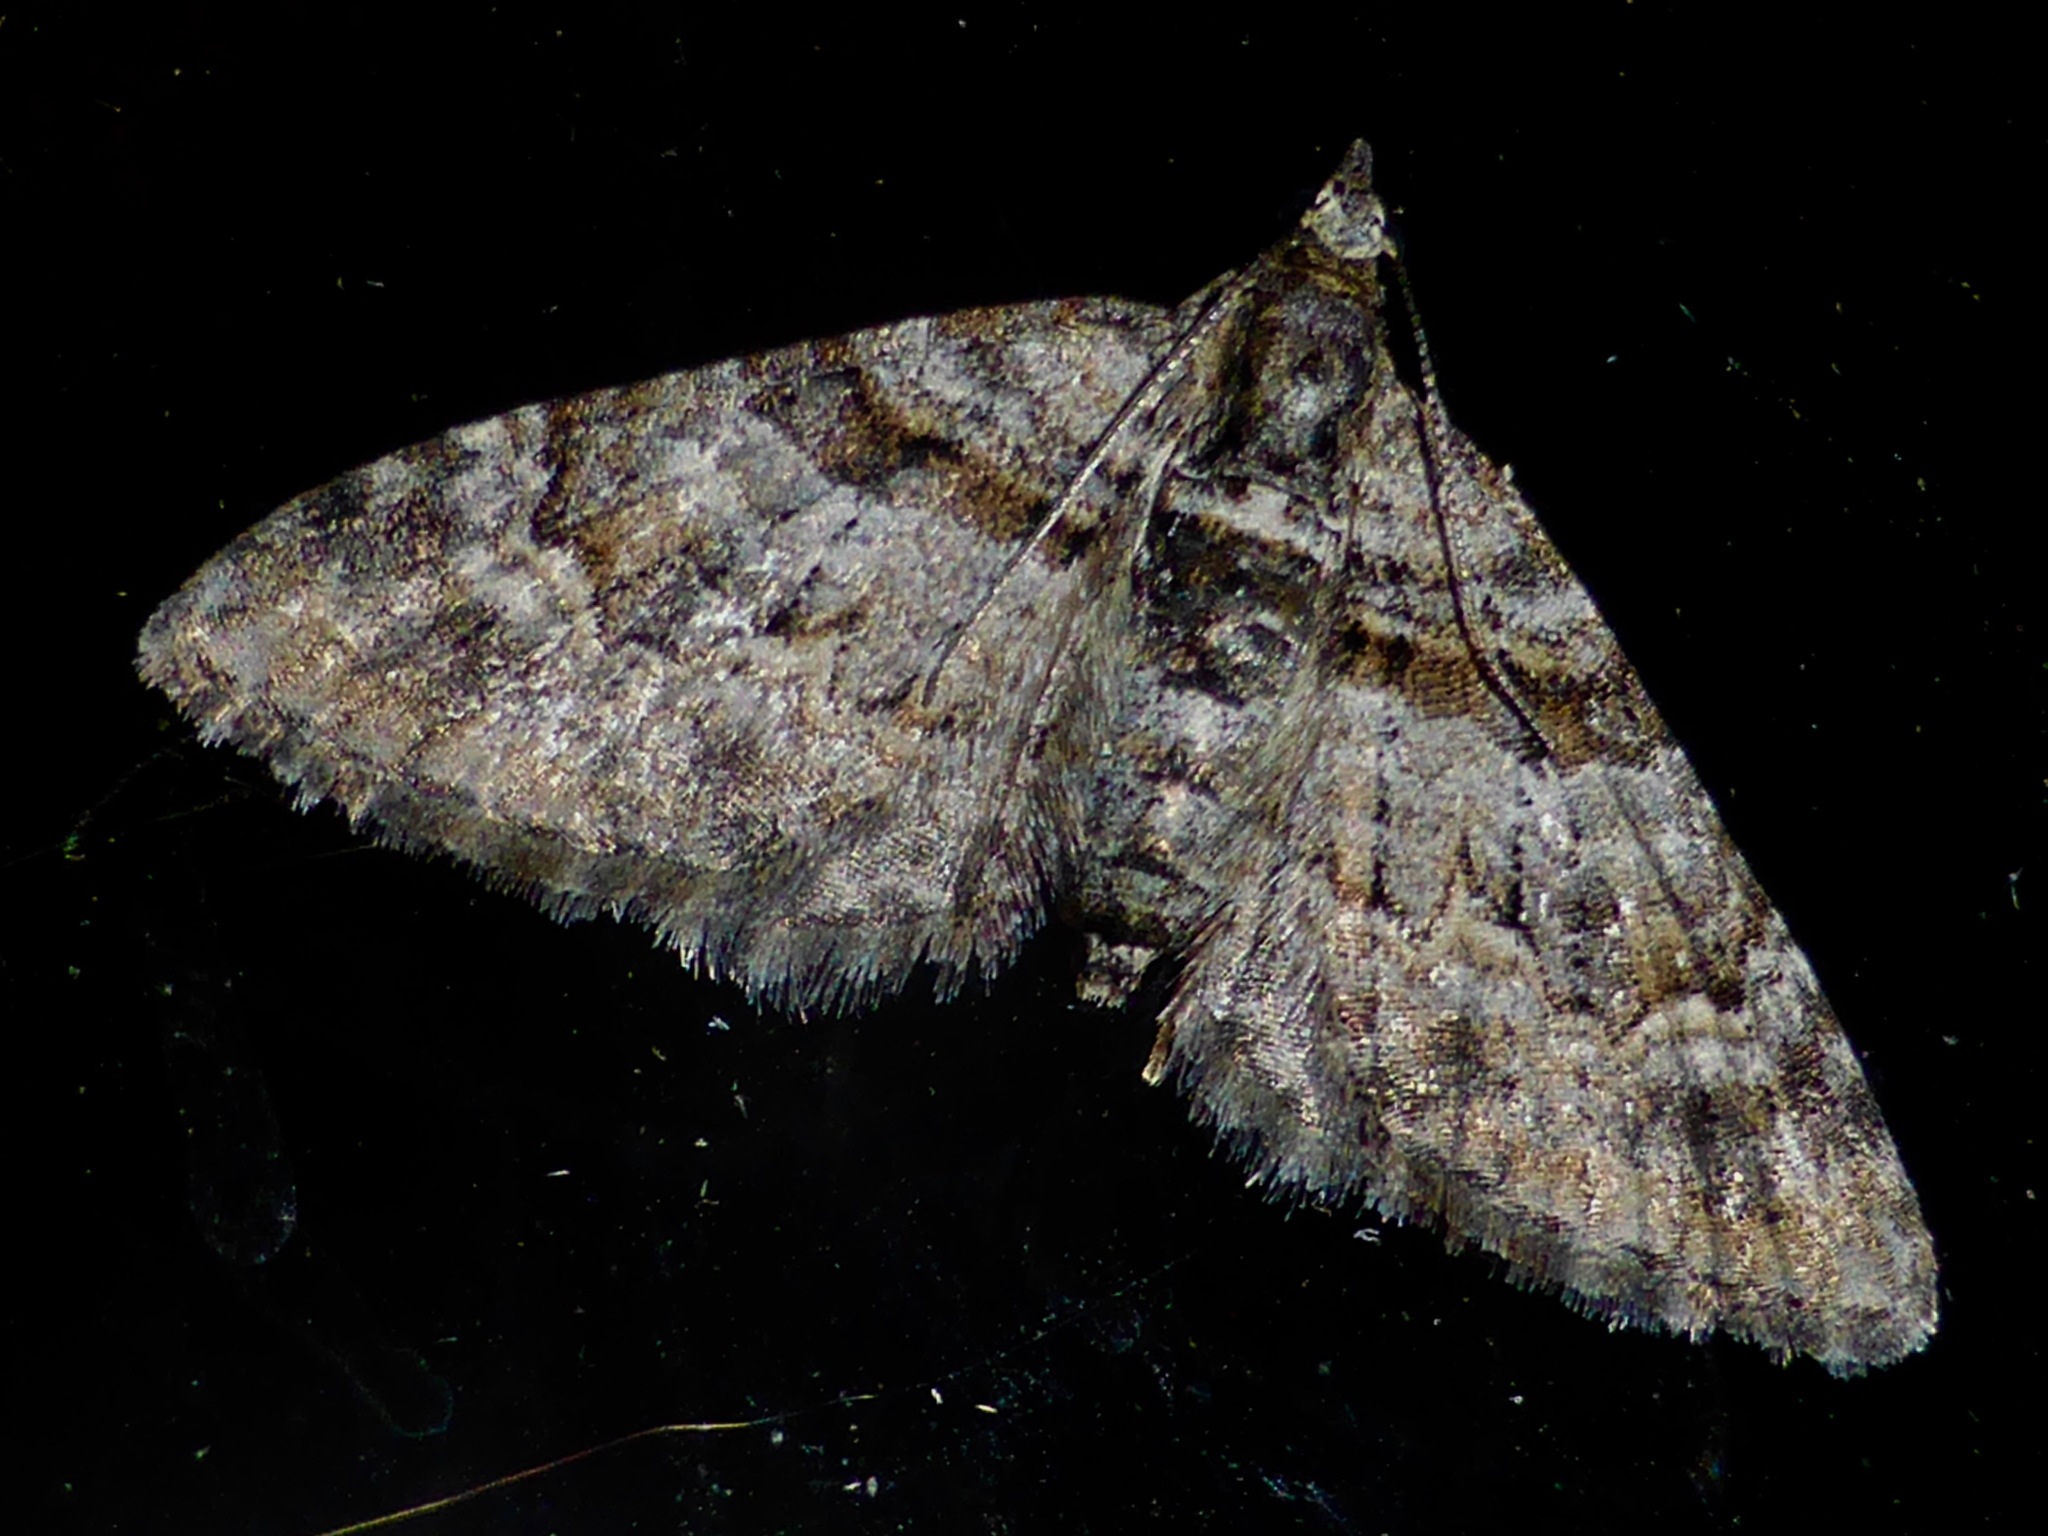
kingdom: Animalia
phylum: Arthropoda
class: Insecta
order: Lepidoptera
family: Geometridae
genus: Phrissogonus
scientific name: Phrissogonus laticostata
